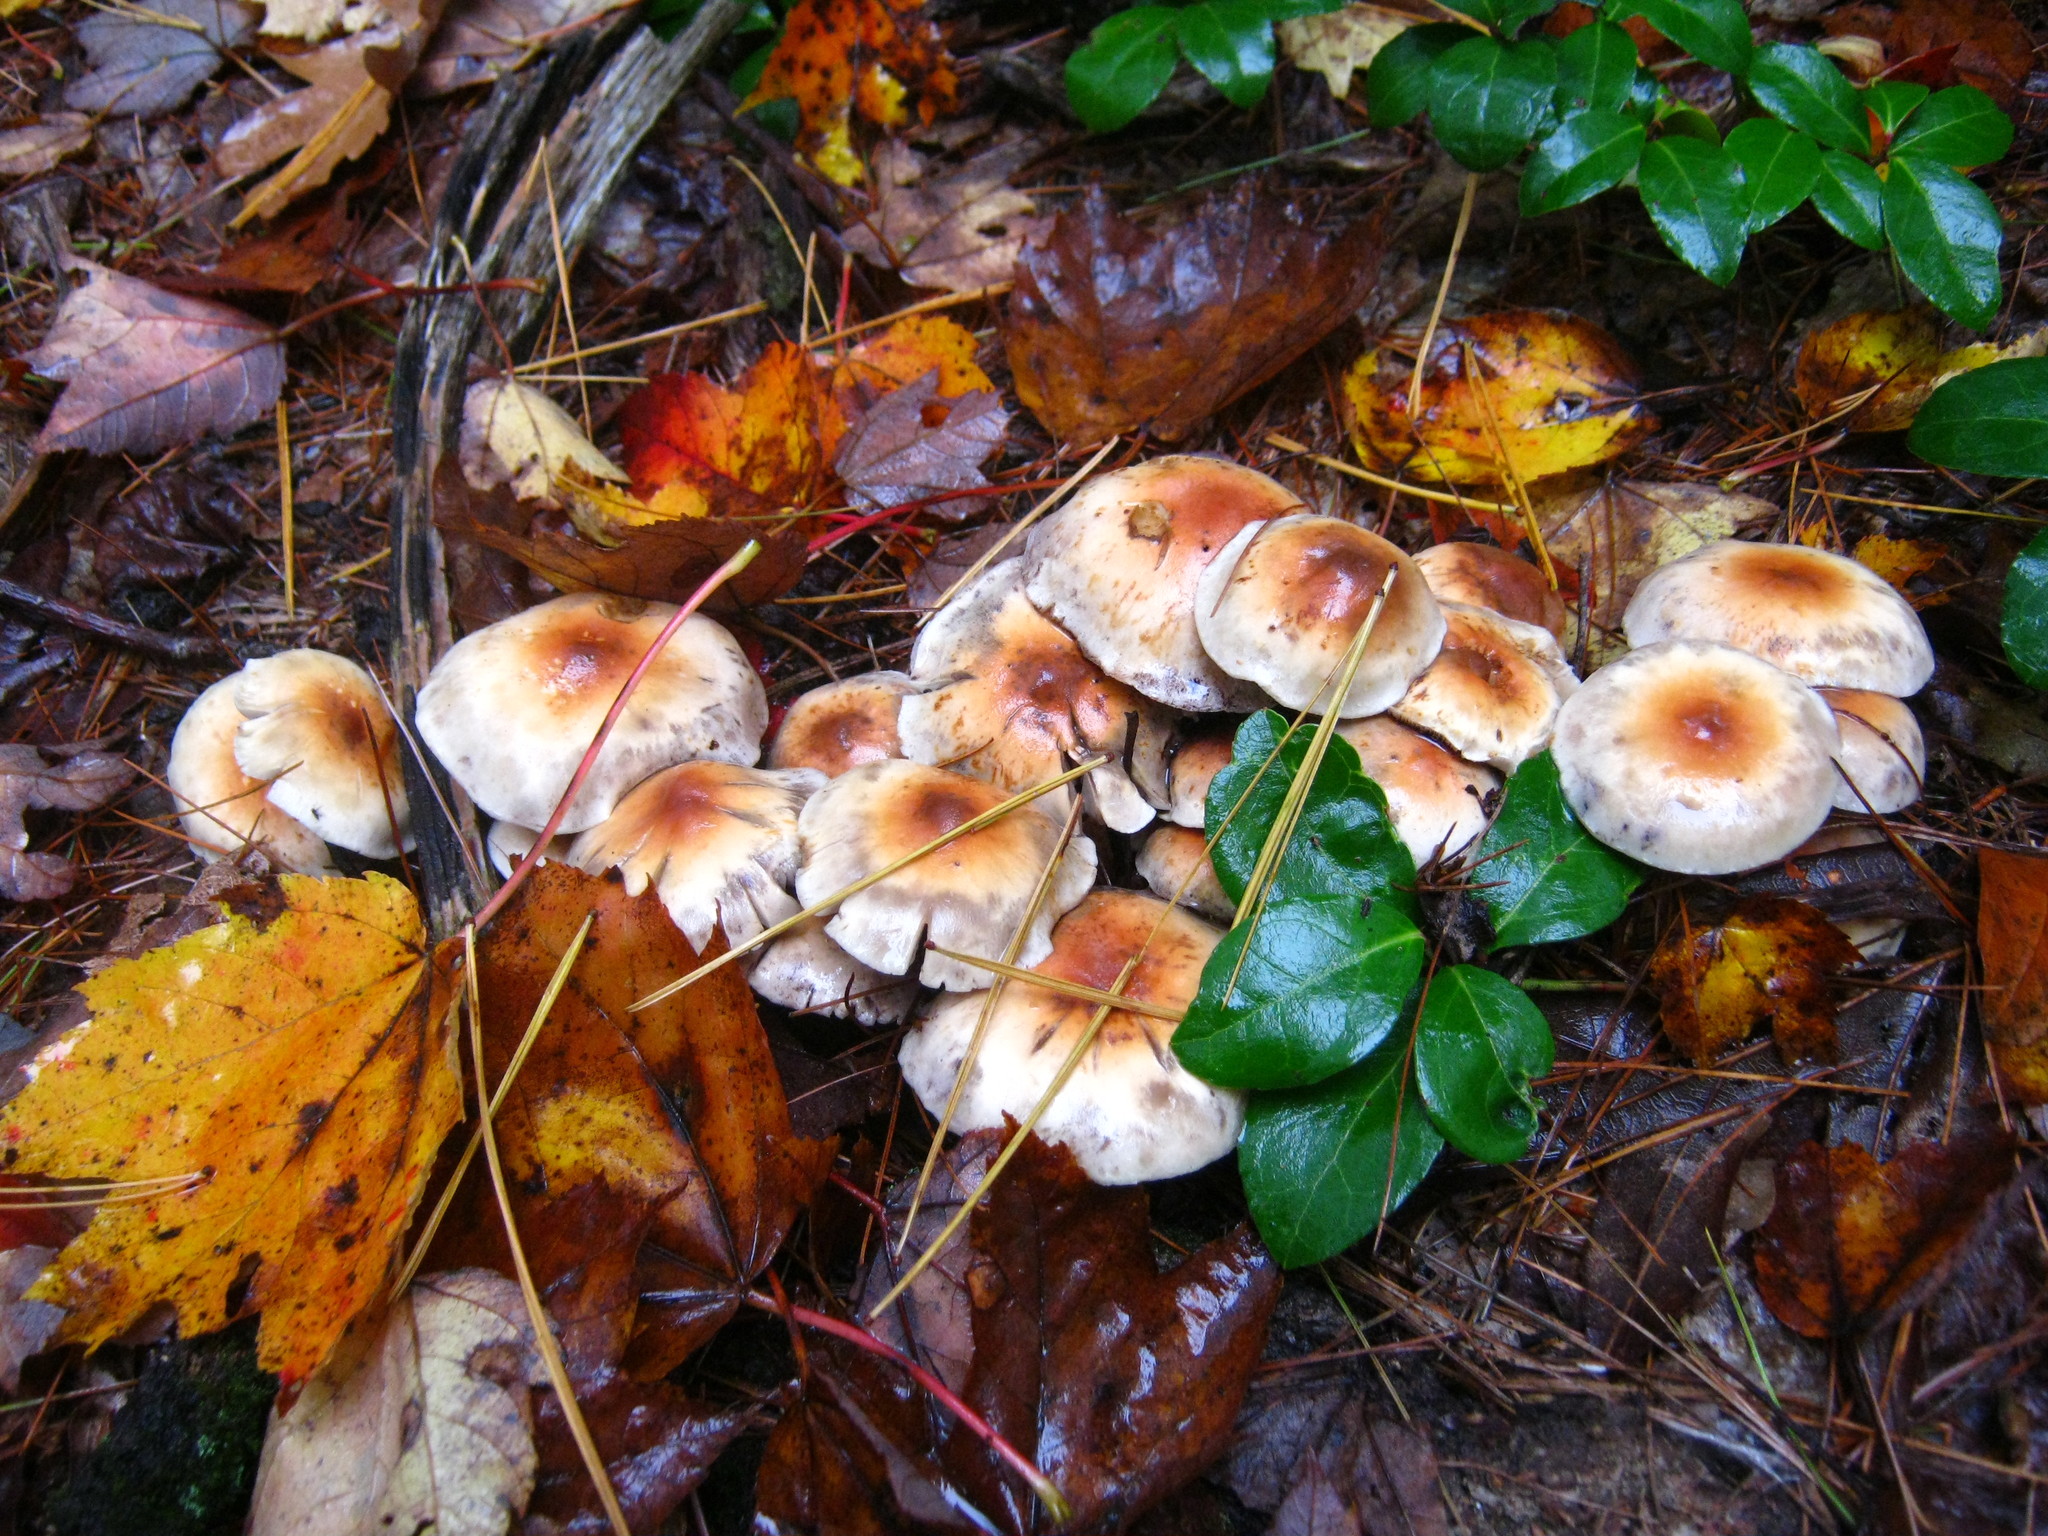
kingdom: Fungi
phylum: Basidiomycota
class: Agaricomycetes
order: Agaricales
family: Strophariaceae
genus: Hypholoma
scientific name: Hypholoma lateritium
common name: Brick caps
